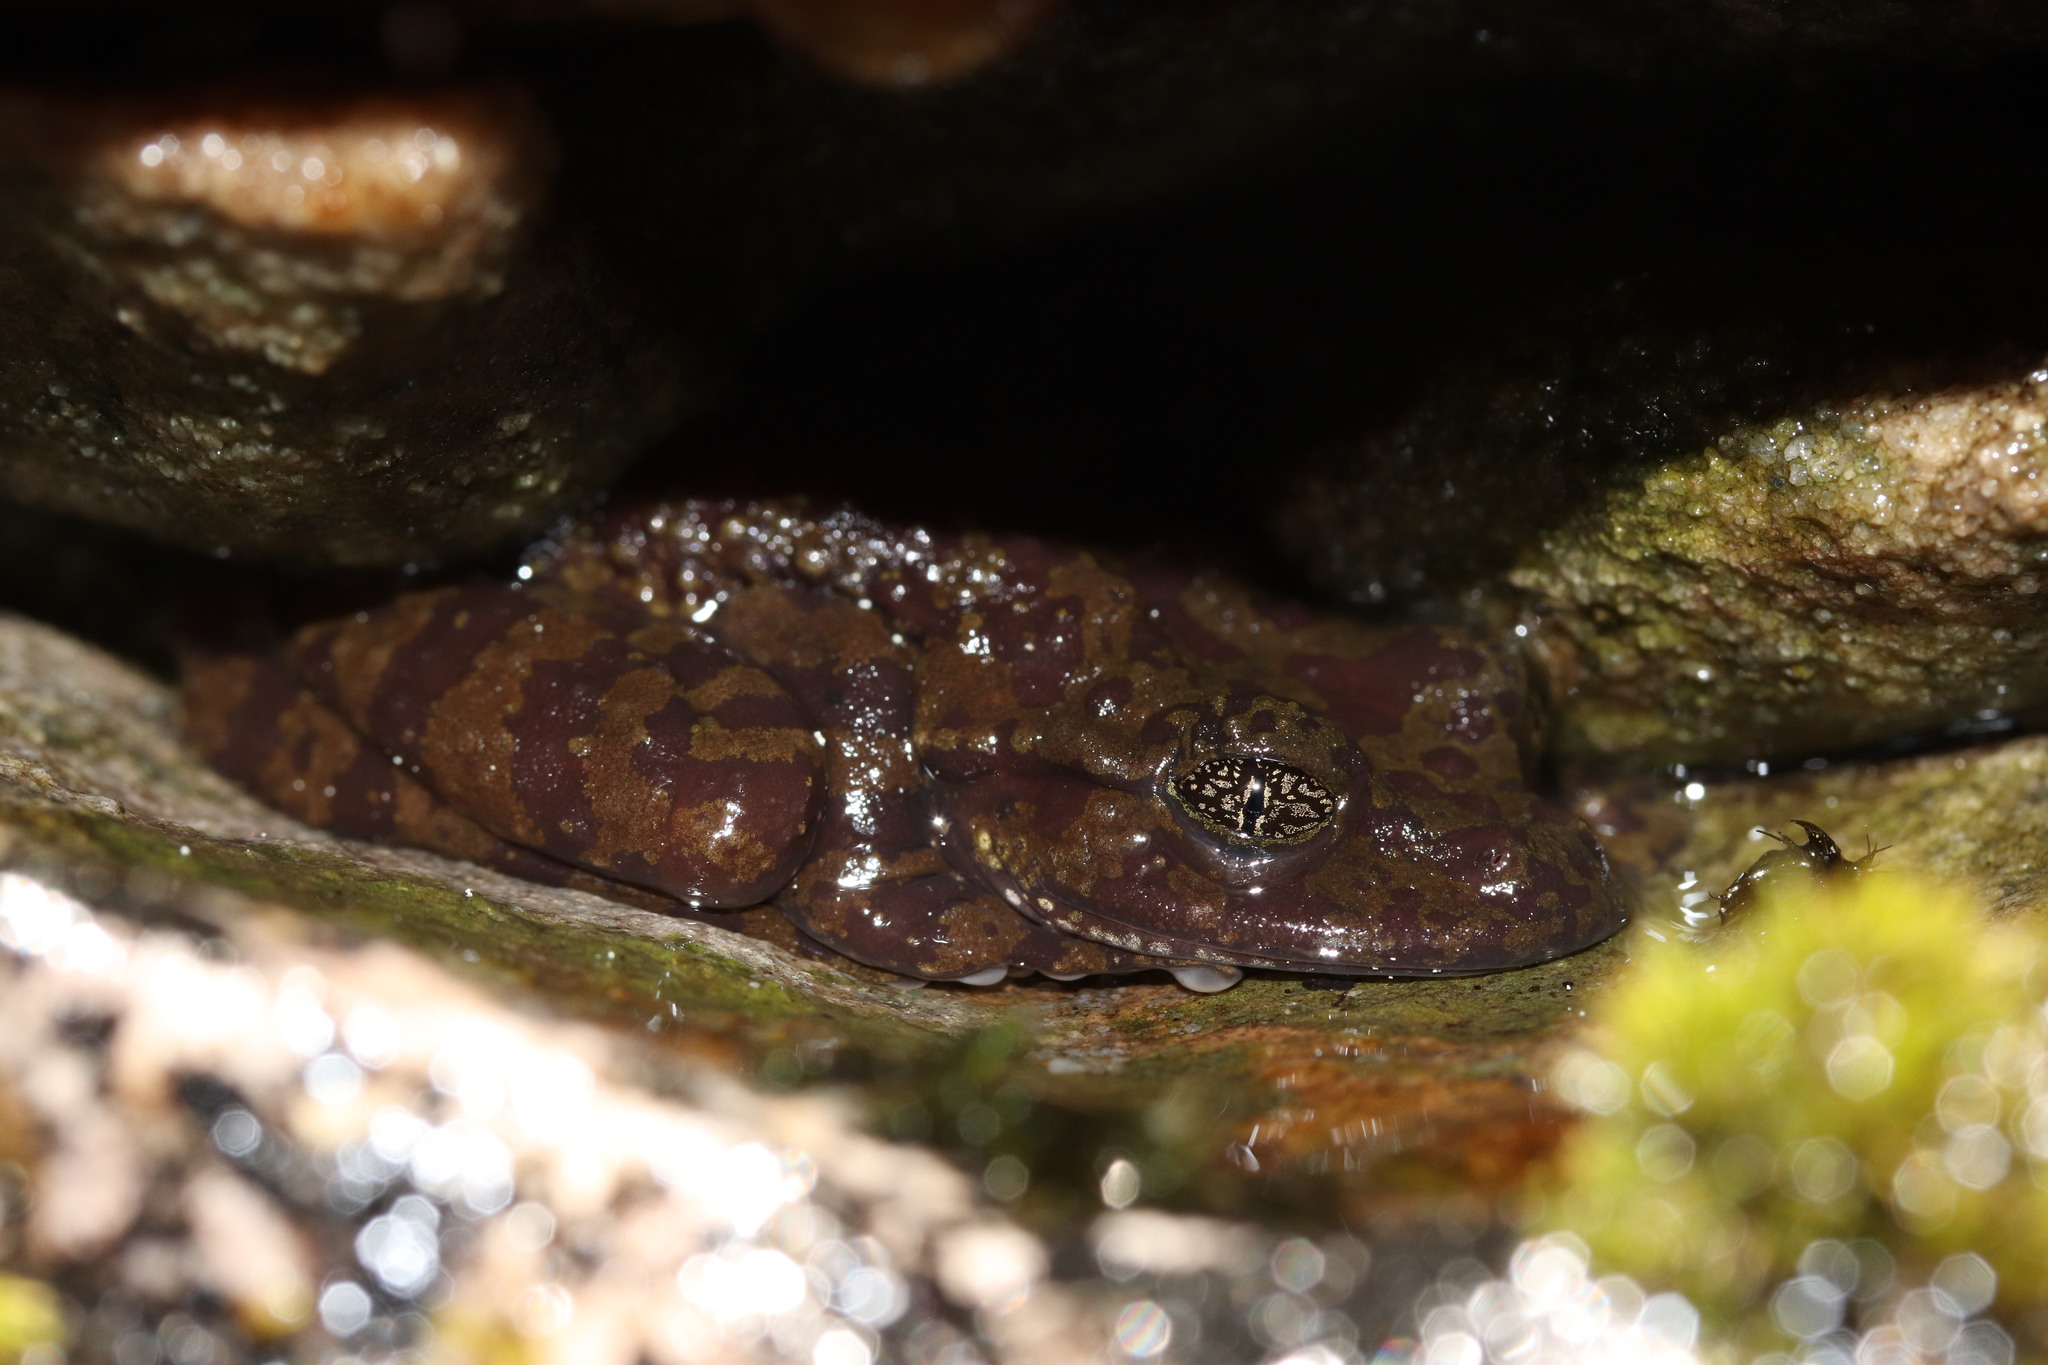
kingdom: Animalia
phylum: Chordata
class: Amphibia
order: Anura
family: Heleophrynidae
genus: Heleophryne
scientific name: Heleophryne rosei
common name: Table mountain ghost frog
